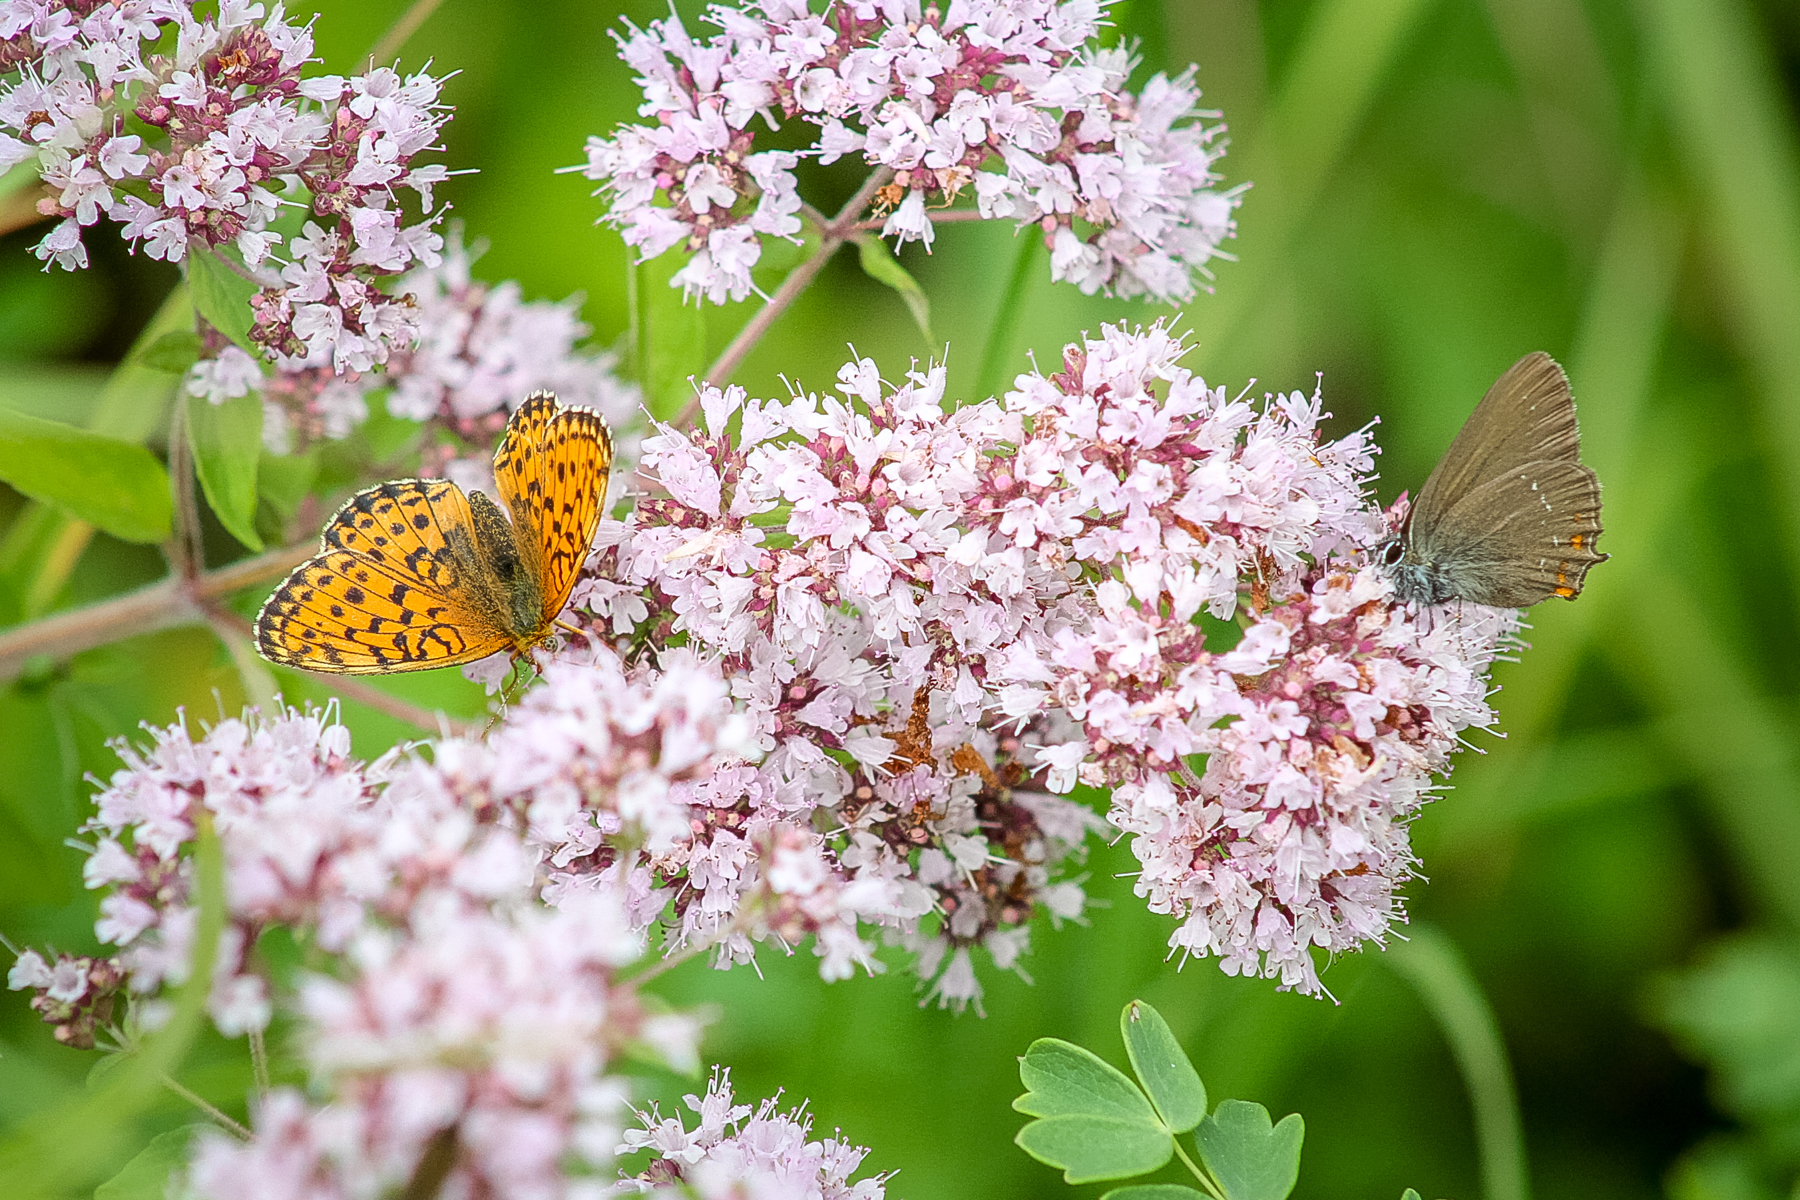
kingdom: Animalia
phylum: Arthropoda
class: Insecta
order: Lepidoptera
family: Nymphalidae
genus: Brenthis
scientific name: Brenthis ino
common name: Lesser marbled fritillary
